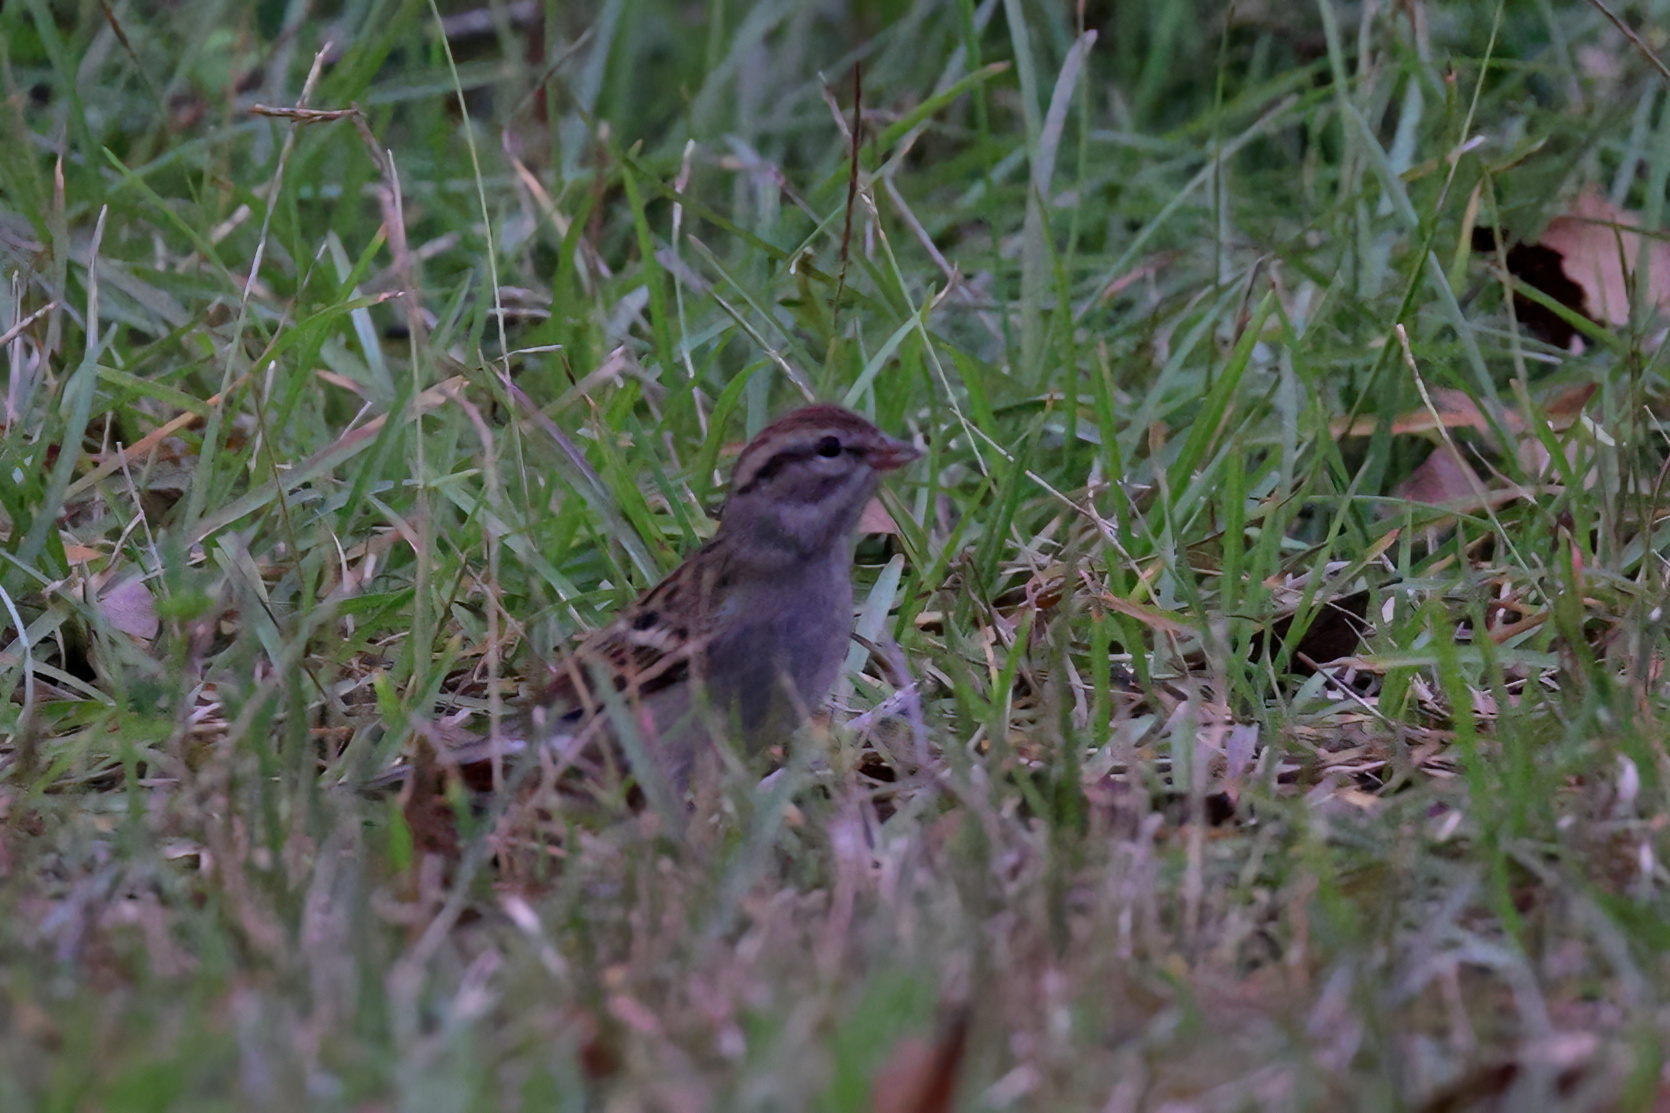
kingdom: Animalia
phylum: Chordata
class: Aves
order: Passeriformes
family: Passerellidae
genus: Spizella
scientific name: Spizella passerina
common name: Chipping sparrow
